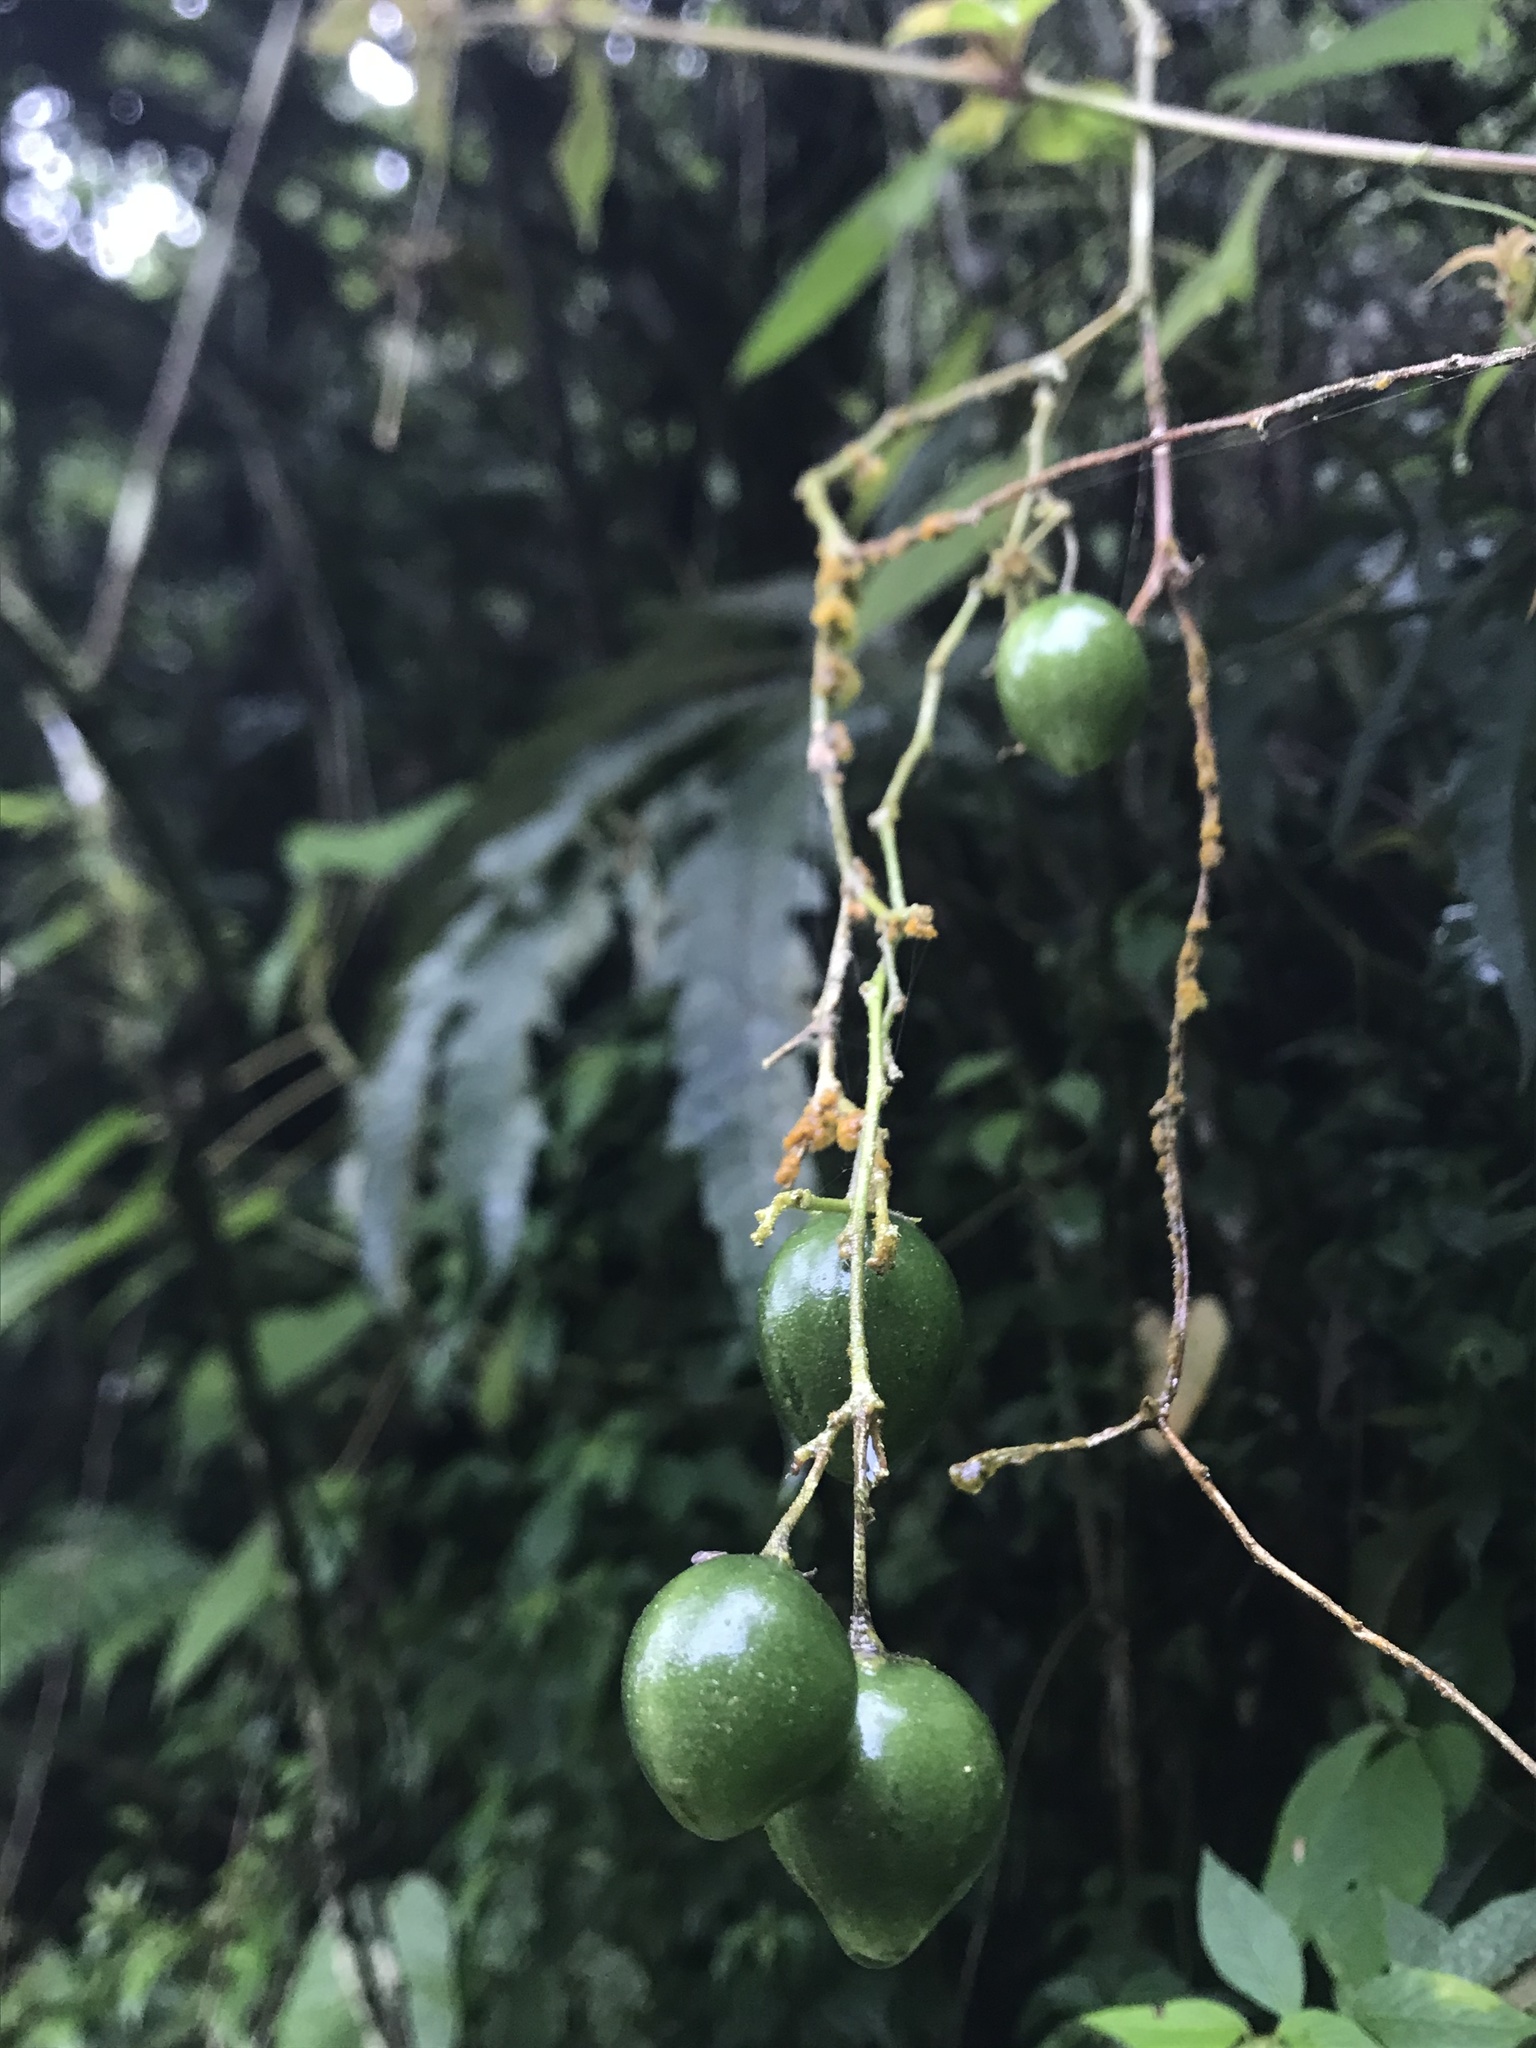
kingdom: Plantae
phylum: Tracheophyta
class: Magnoliopsida
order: Solanales
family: Solanaceae
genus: Solanum
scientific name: Solanum sodiroi
